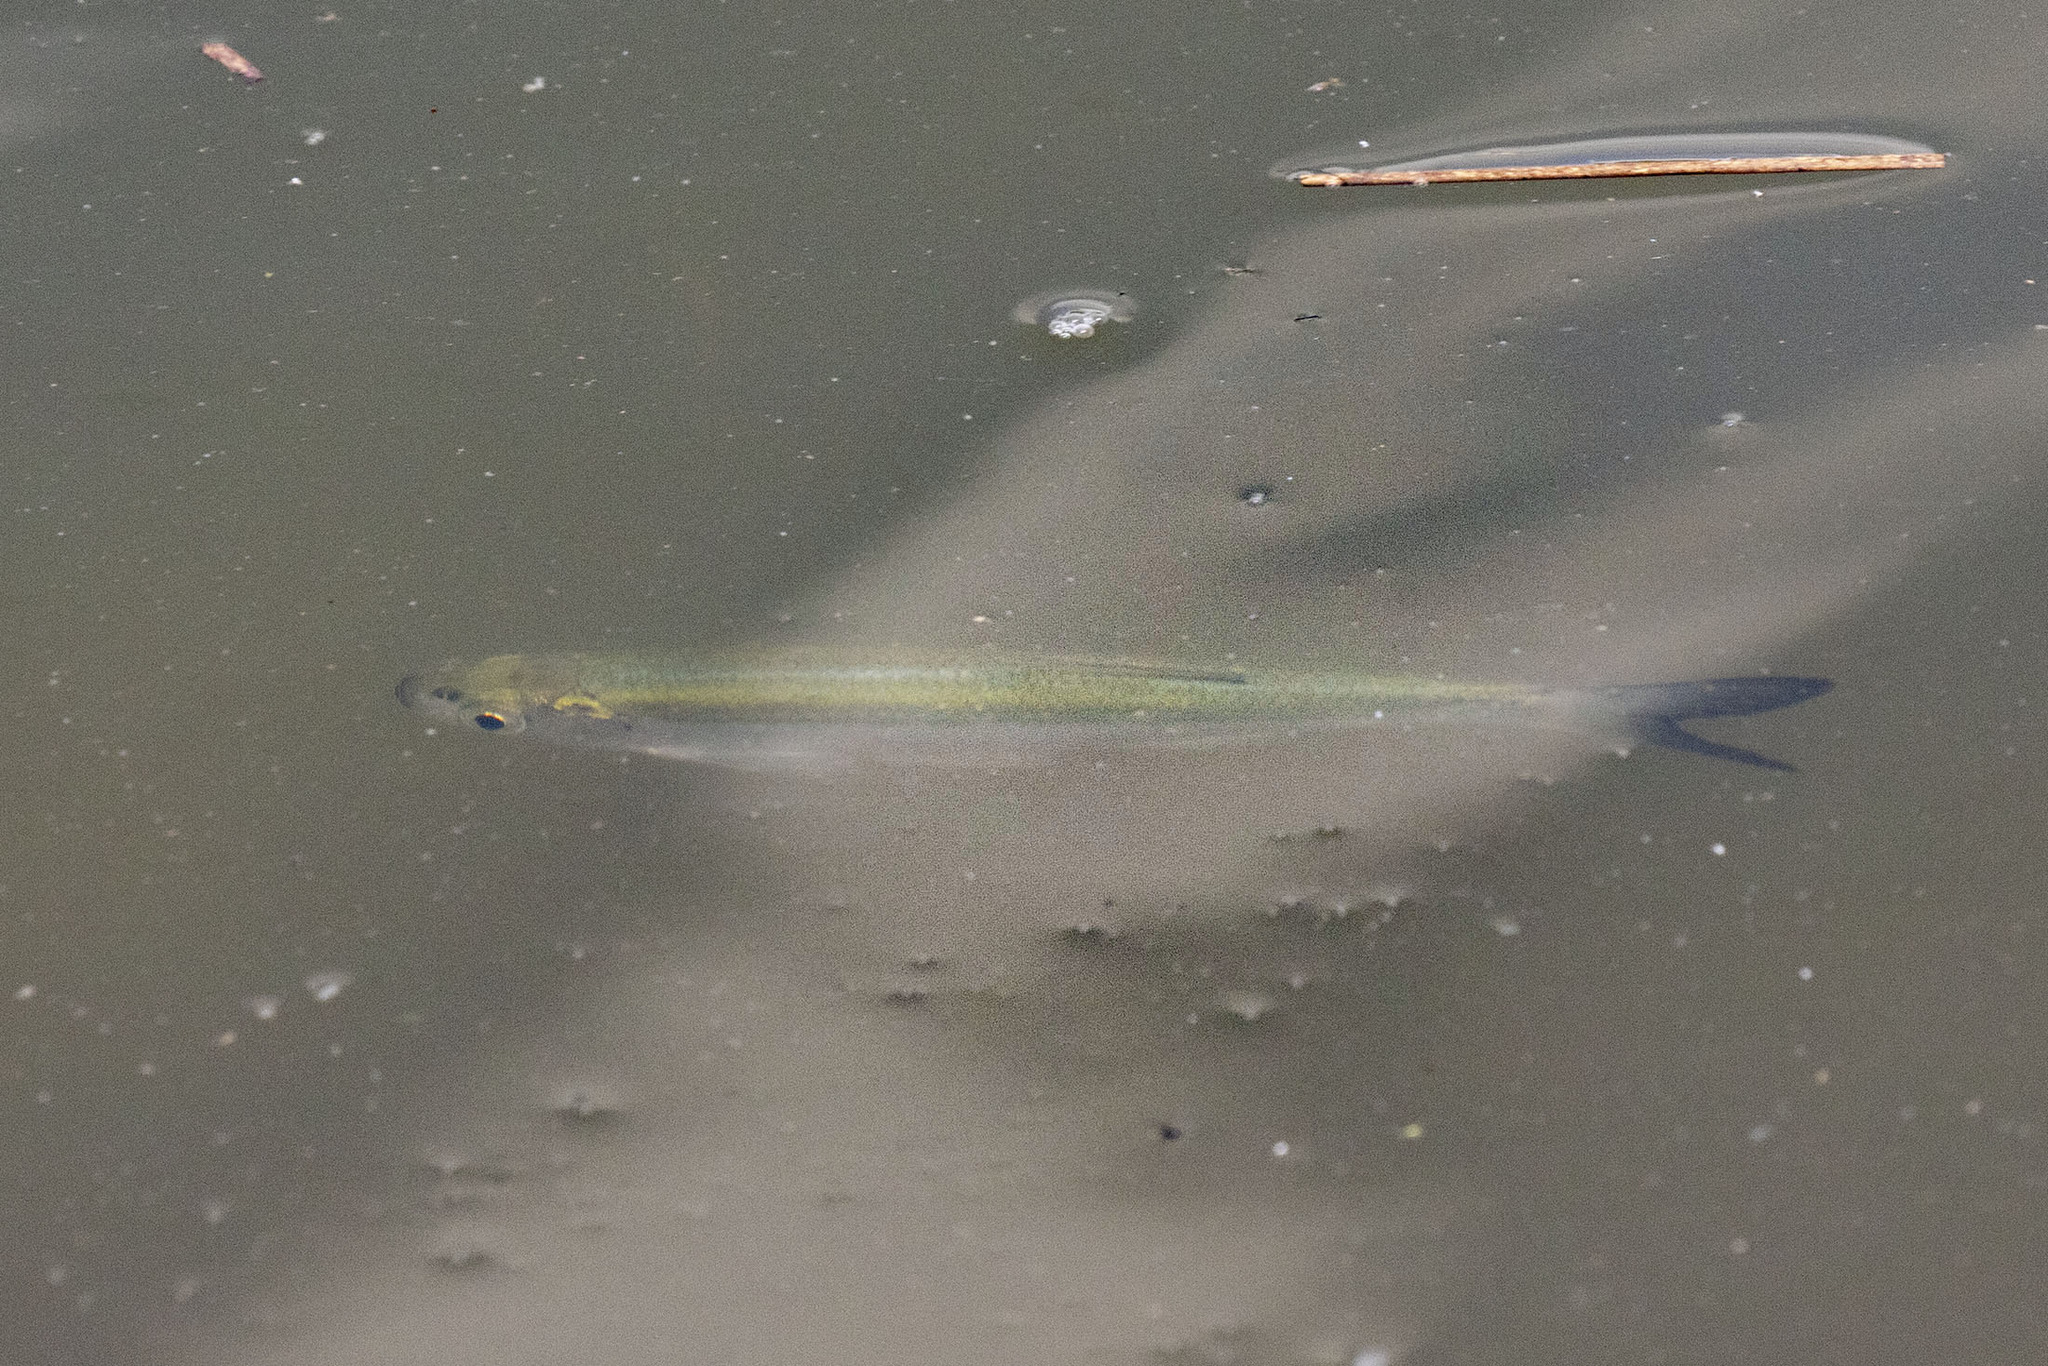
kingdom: Animalia
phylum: Chordata
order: Cypriniformes
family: Cyprinidae
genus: Alburnus
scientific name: Alburnus alburnus
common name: Bleak
